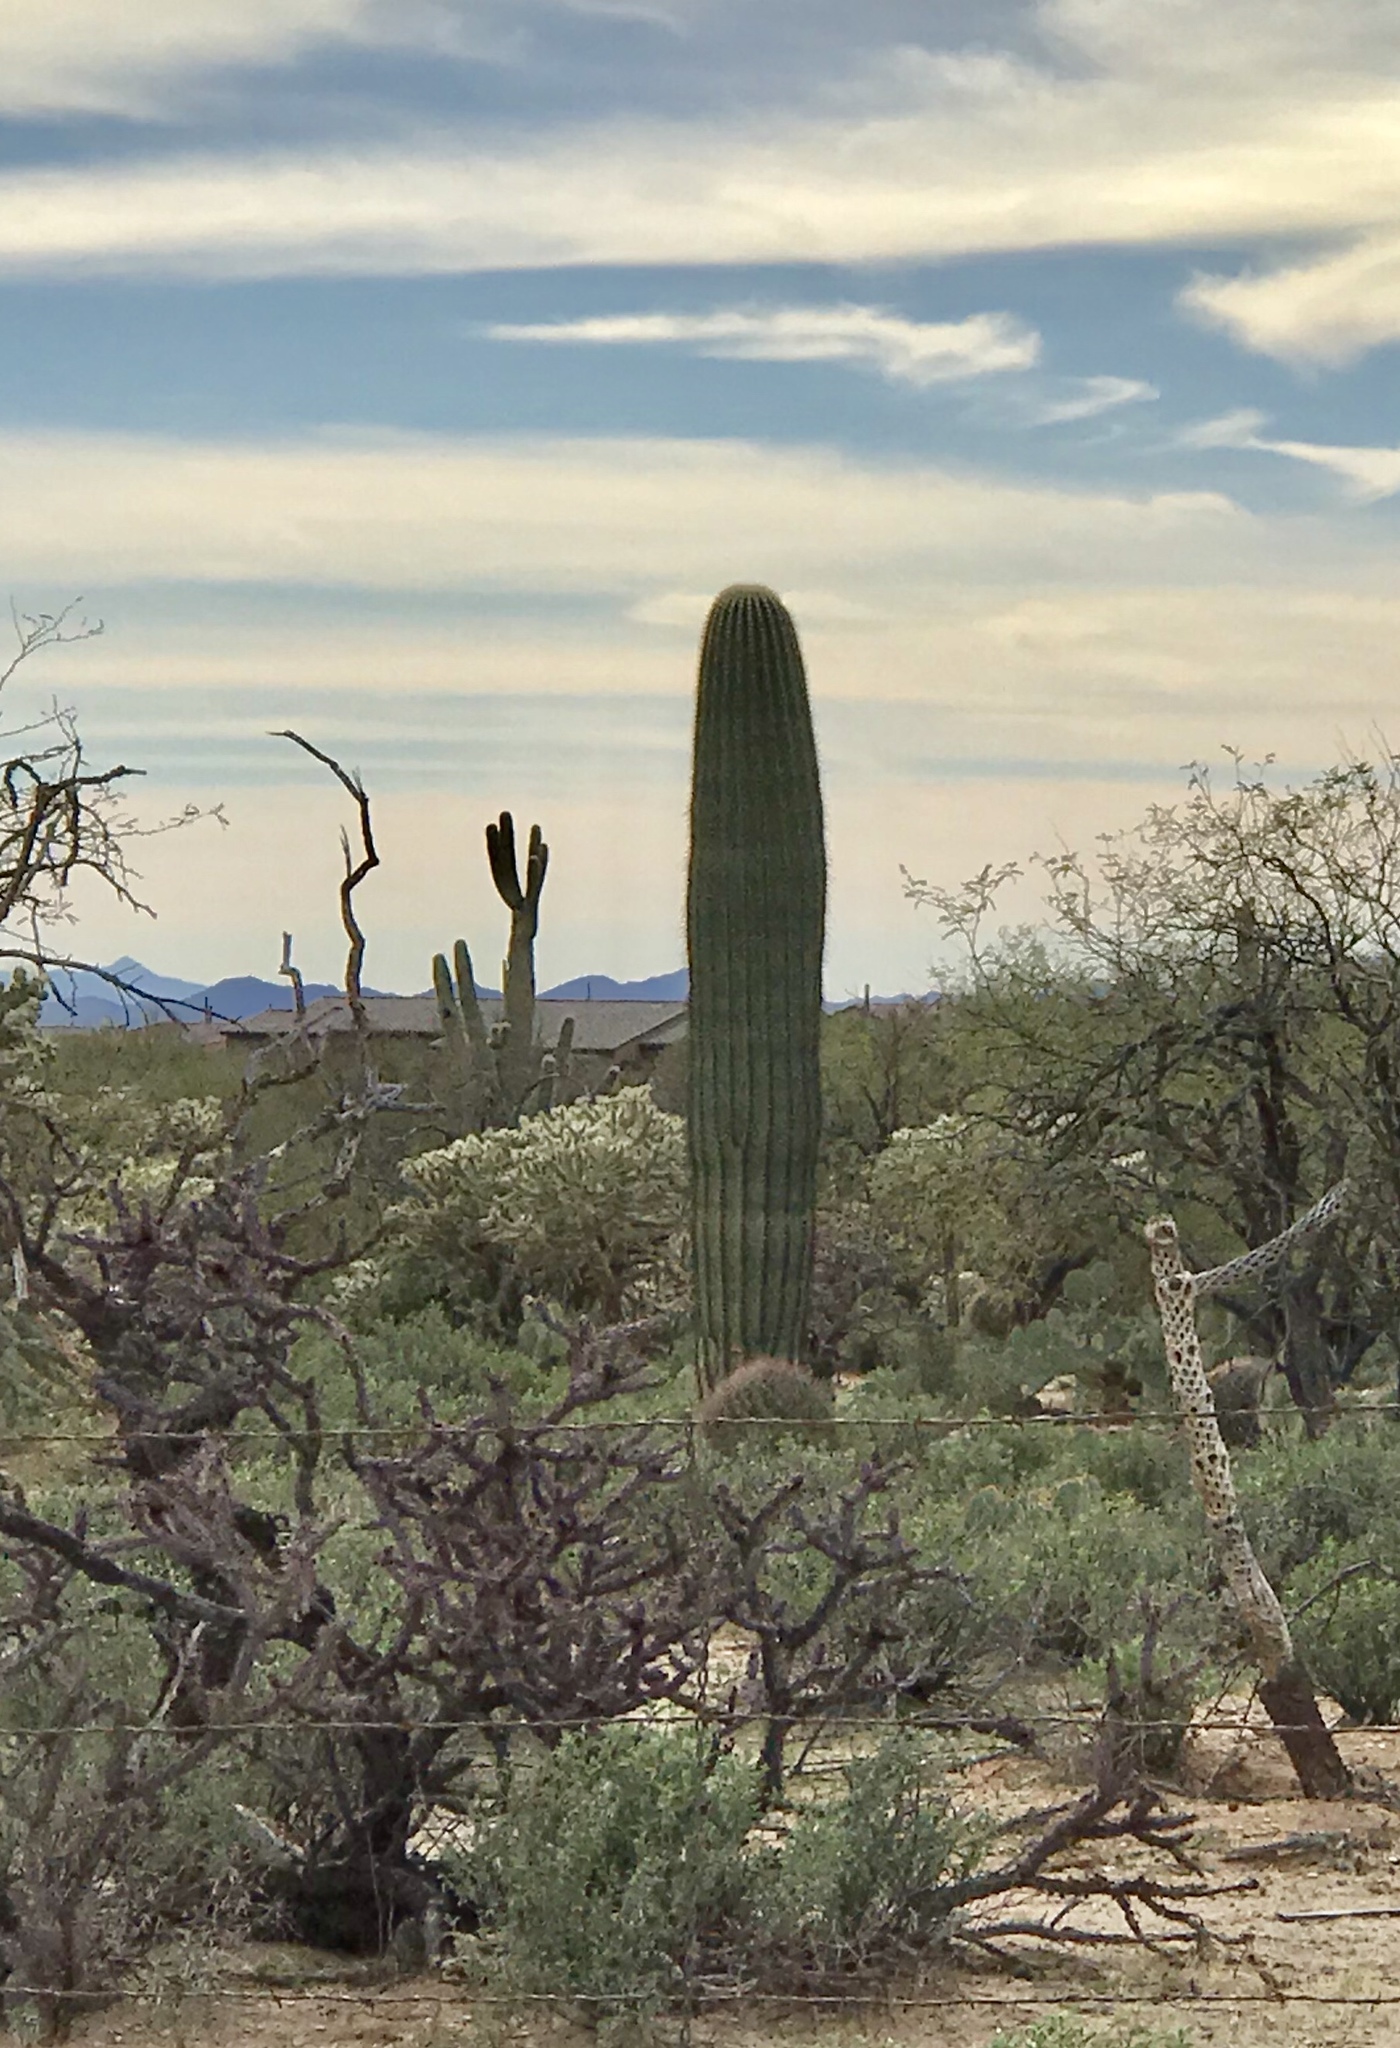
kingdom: Plantae
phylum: Tracheophyta
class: Magnoliopsida
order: Caryophyllales
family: Cactaceae
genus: Carnegiea
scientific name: Carnegiea gigantea
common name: Saguaro
